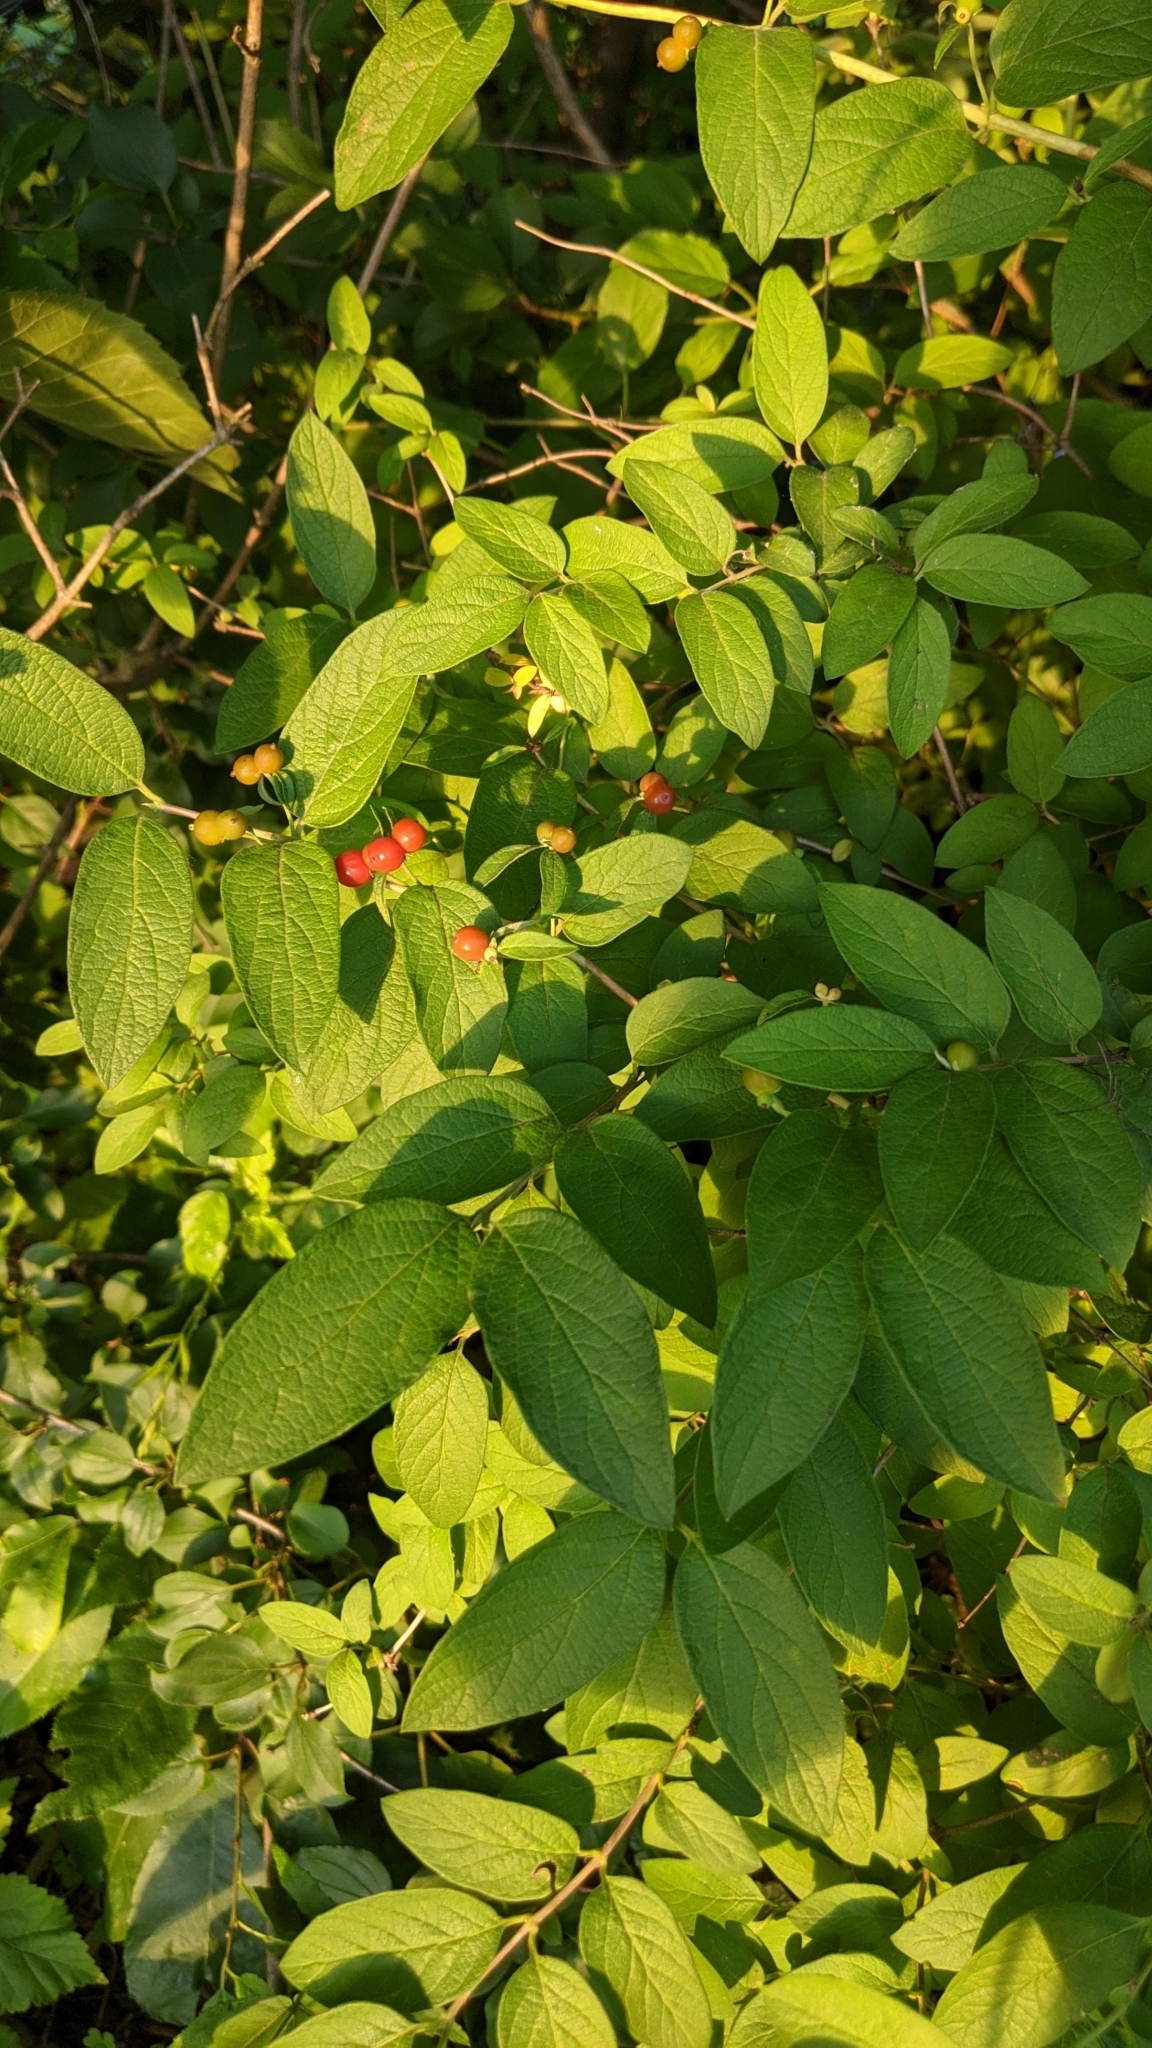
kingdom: Plantae
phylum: Tracheophyta
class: Magnoliopsida
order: Dipsacales
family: Caprifoliaceae
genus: Lonicera
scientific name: Lonicera
